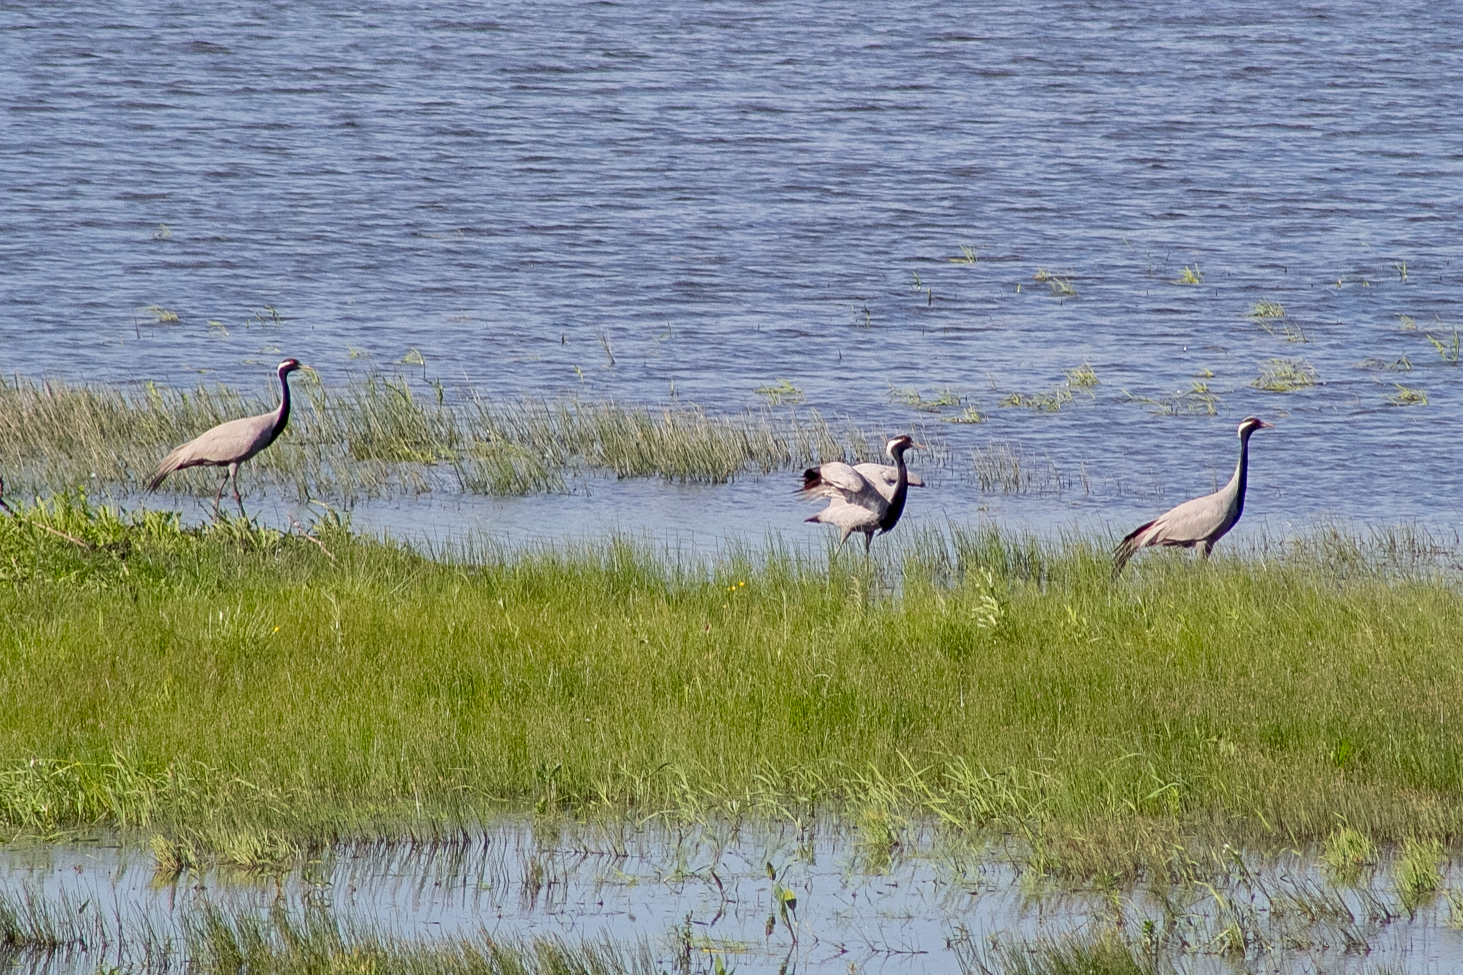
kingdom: Animalia
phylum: Chordata
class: Aves
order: Gruiformes
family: Gruidae
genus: Anthropoides
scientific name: Anthropoides virgo
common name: Demoiselle crane
